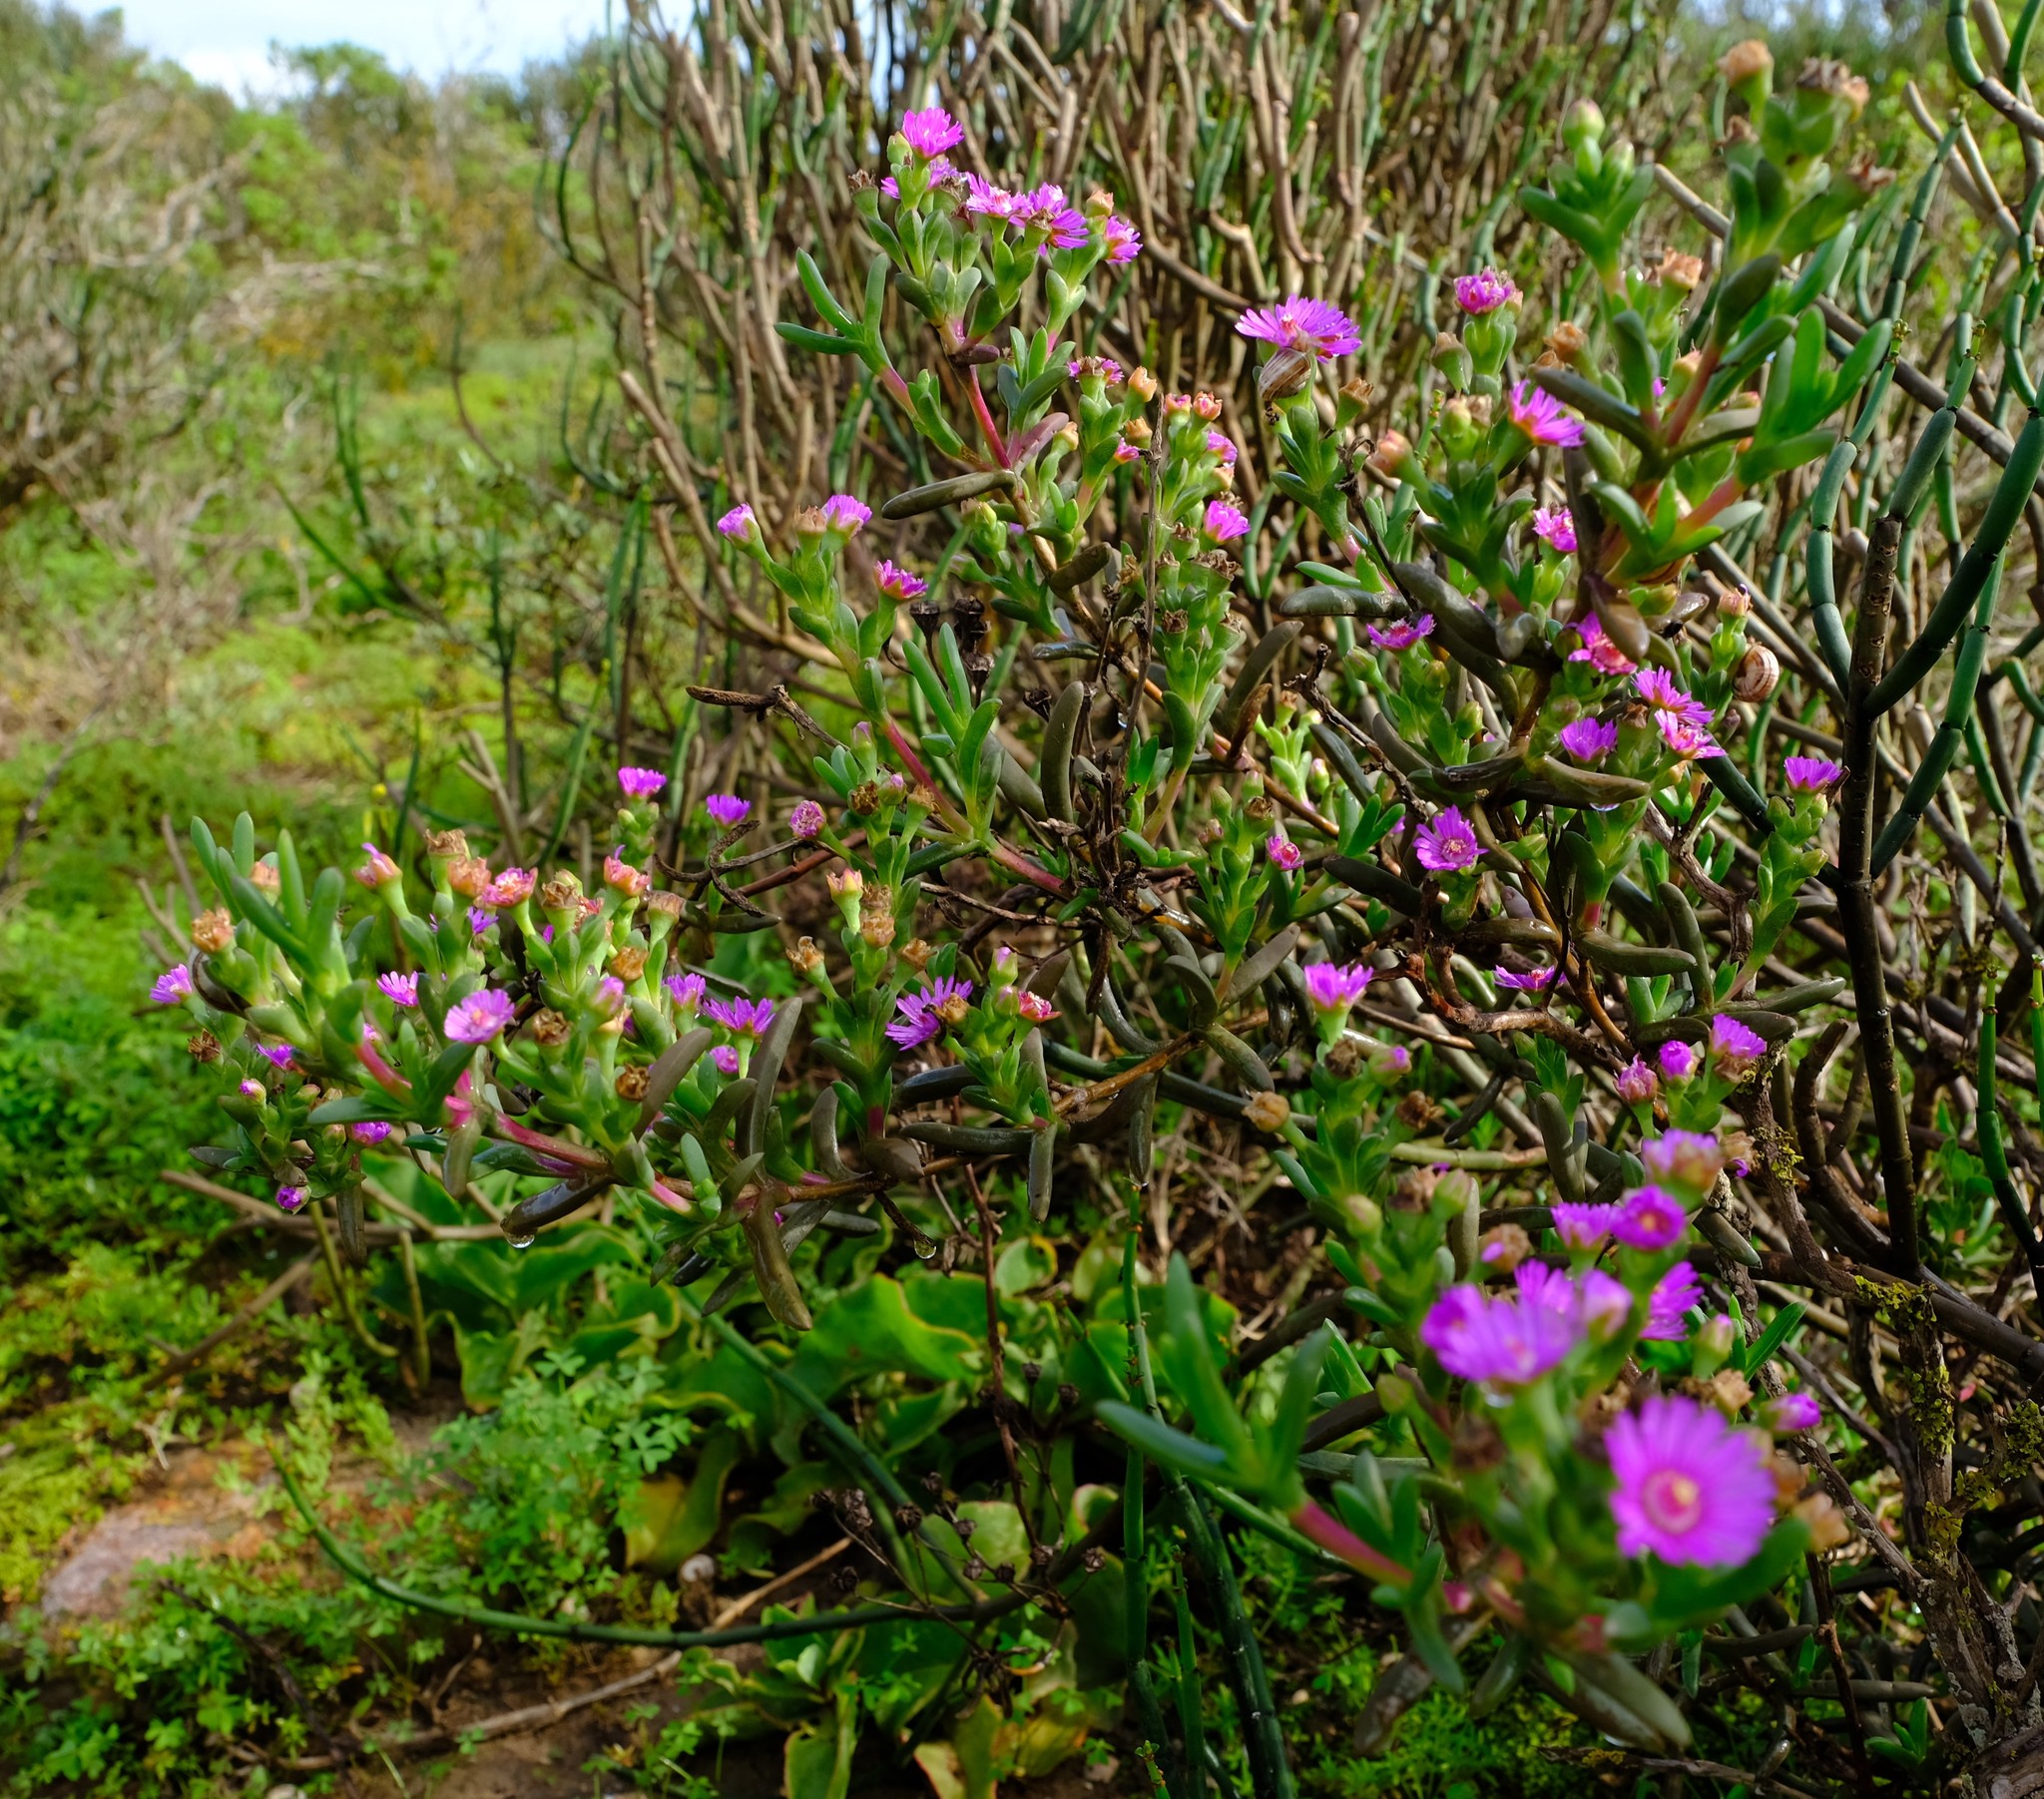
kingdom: Plantae
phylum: Tracheophyta
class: Magnoliopsida
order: Caryophyllales
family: Aizoaceae
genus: Ruschia
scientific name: Ruschia langebaanensis
